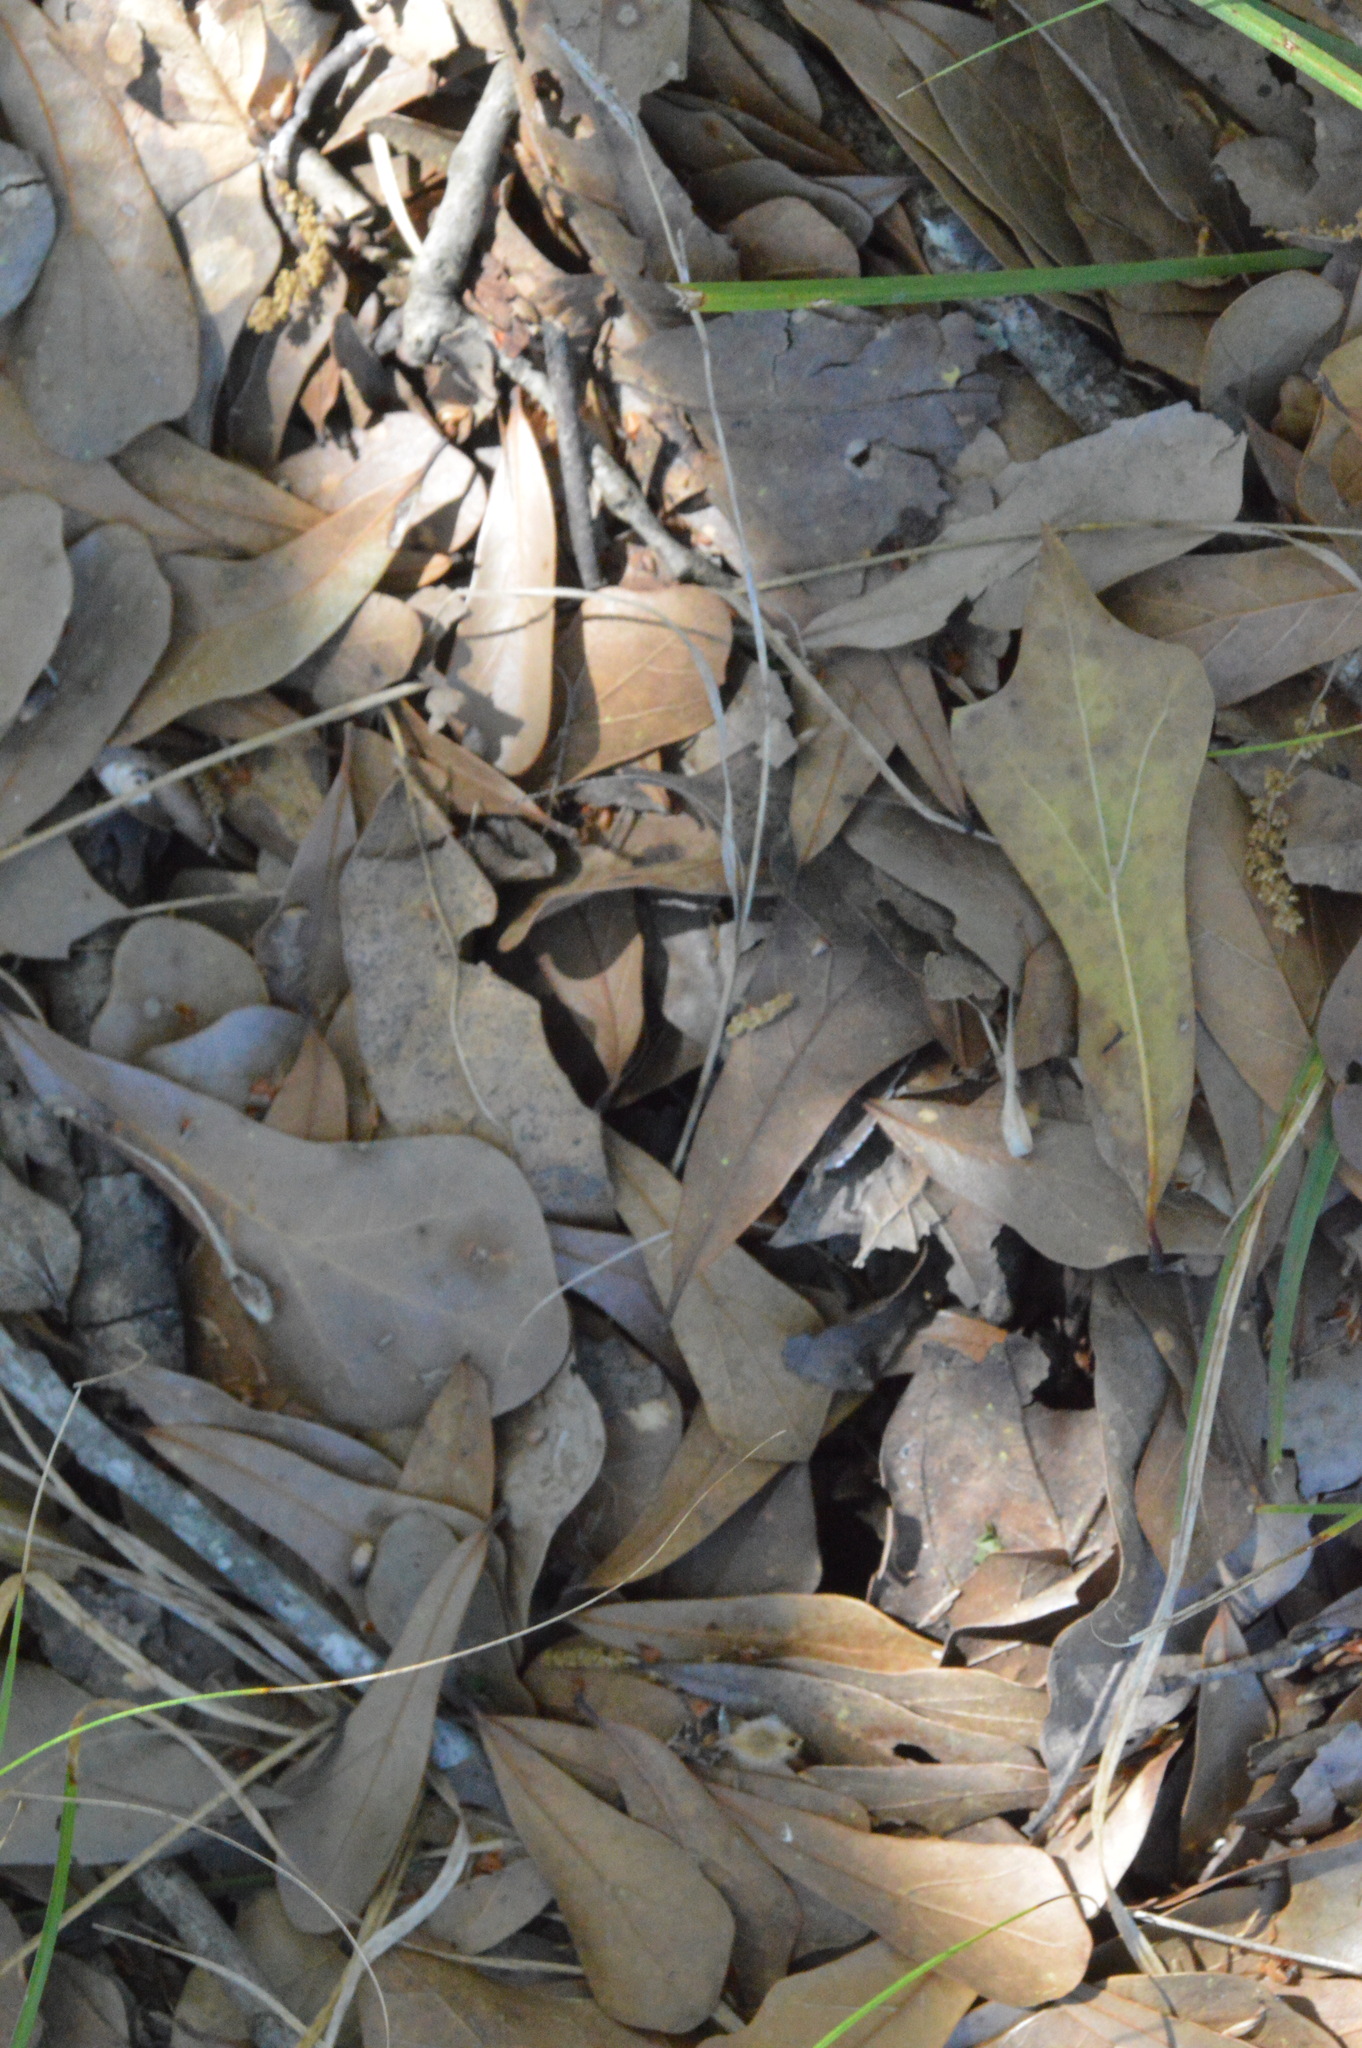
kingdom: Plantae
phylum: Tracheophyta
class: Magnoliopsida
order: Fagales
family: Fagaceae
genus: Quercus
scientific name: Quercus nigra
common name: Water oak
